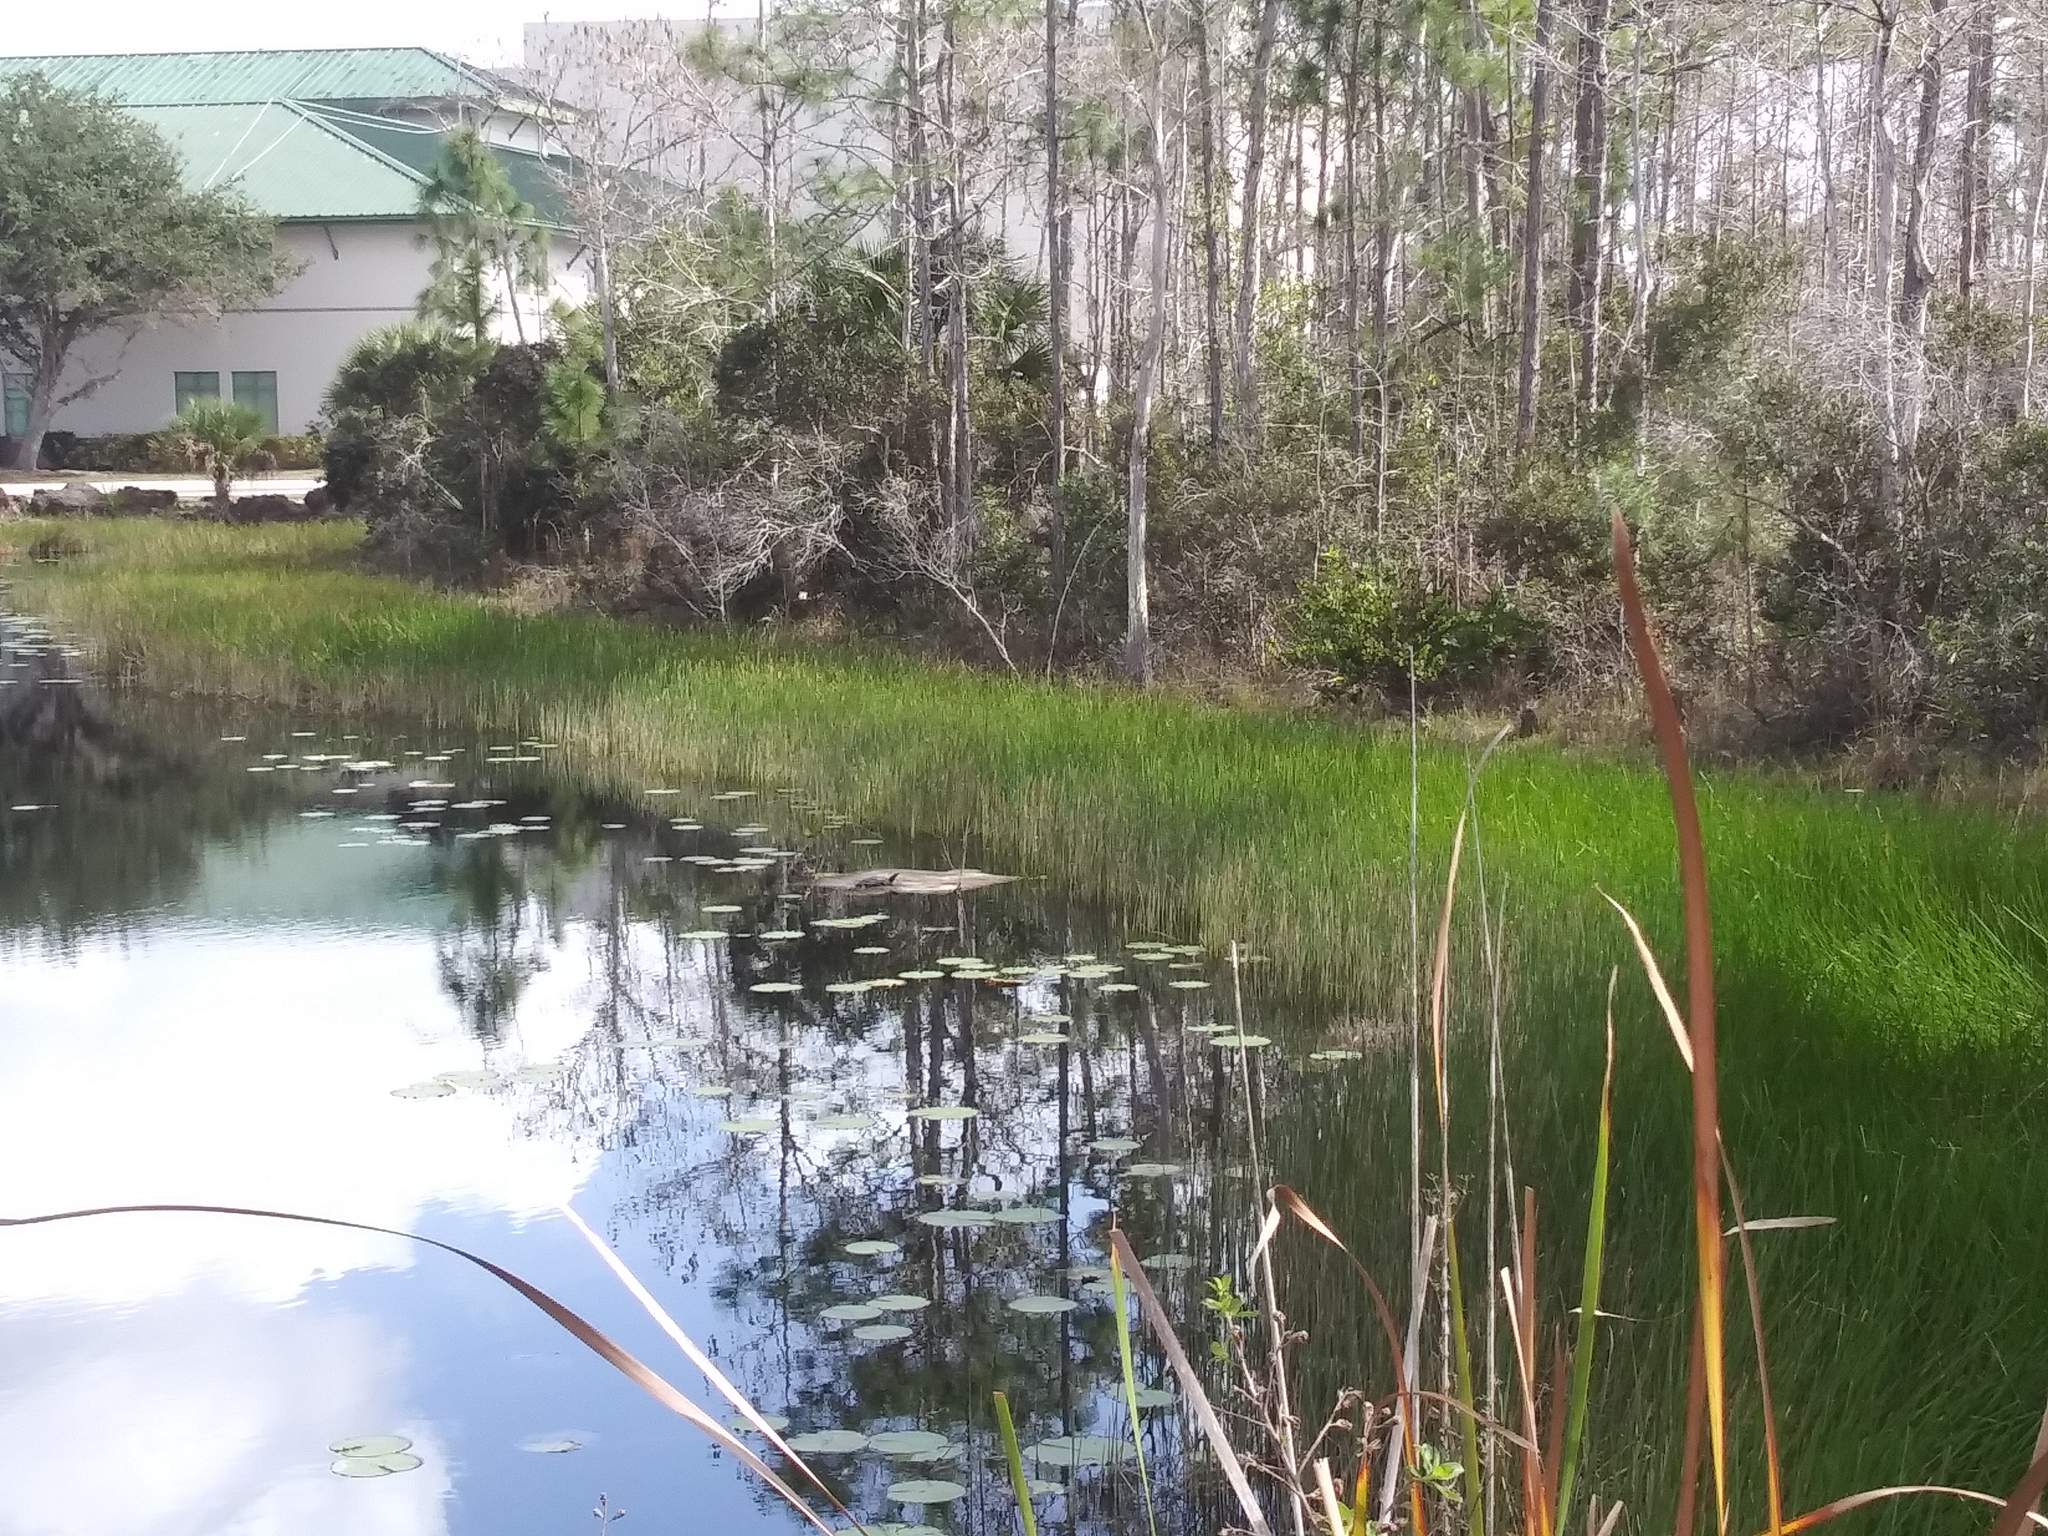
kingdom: Animalia
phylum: Chordata
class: Testudines
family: Trionychidae
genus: Apalone
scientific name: Apalone ferox
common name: Florida softshell turtle
